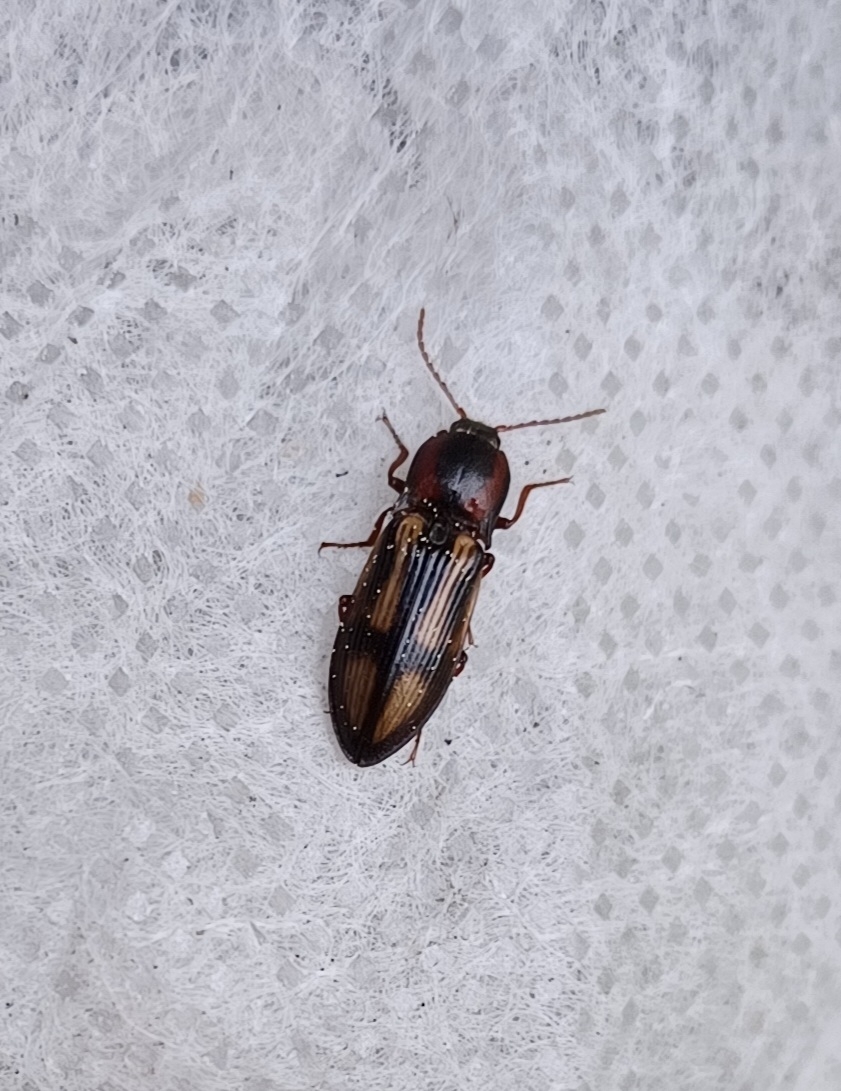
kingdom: Animalia
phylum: Arthropoda
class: Insecta
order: Coleoptera
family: Elateridae
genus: Selatosomus
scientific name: Selatosomus cruciatus
